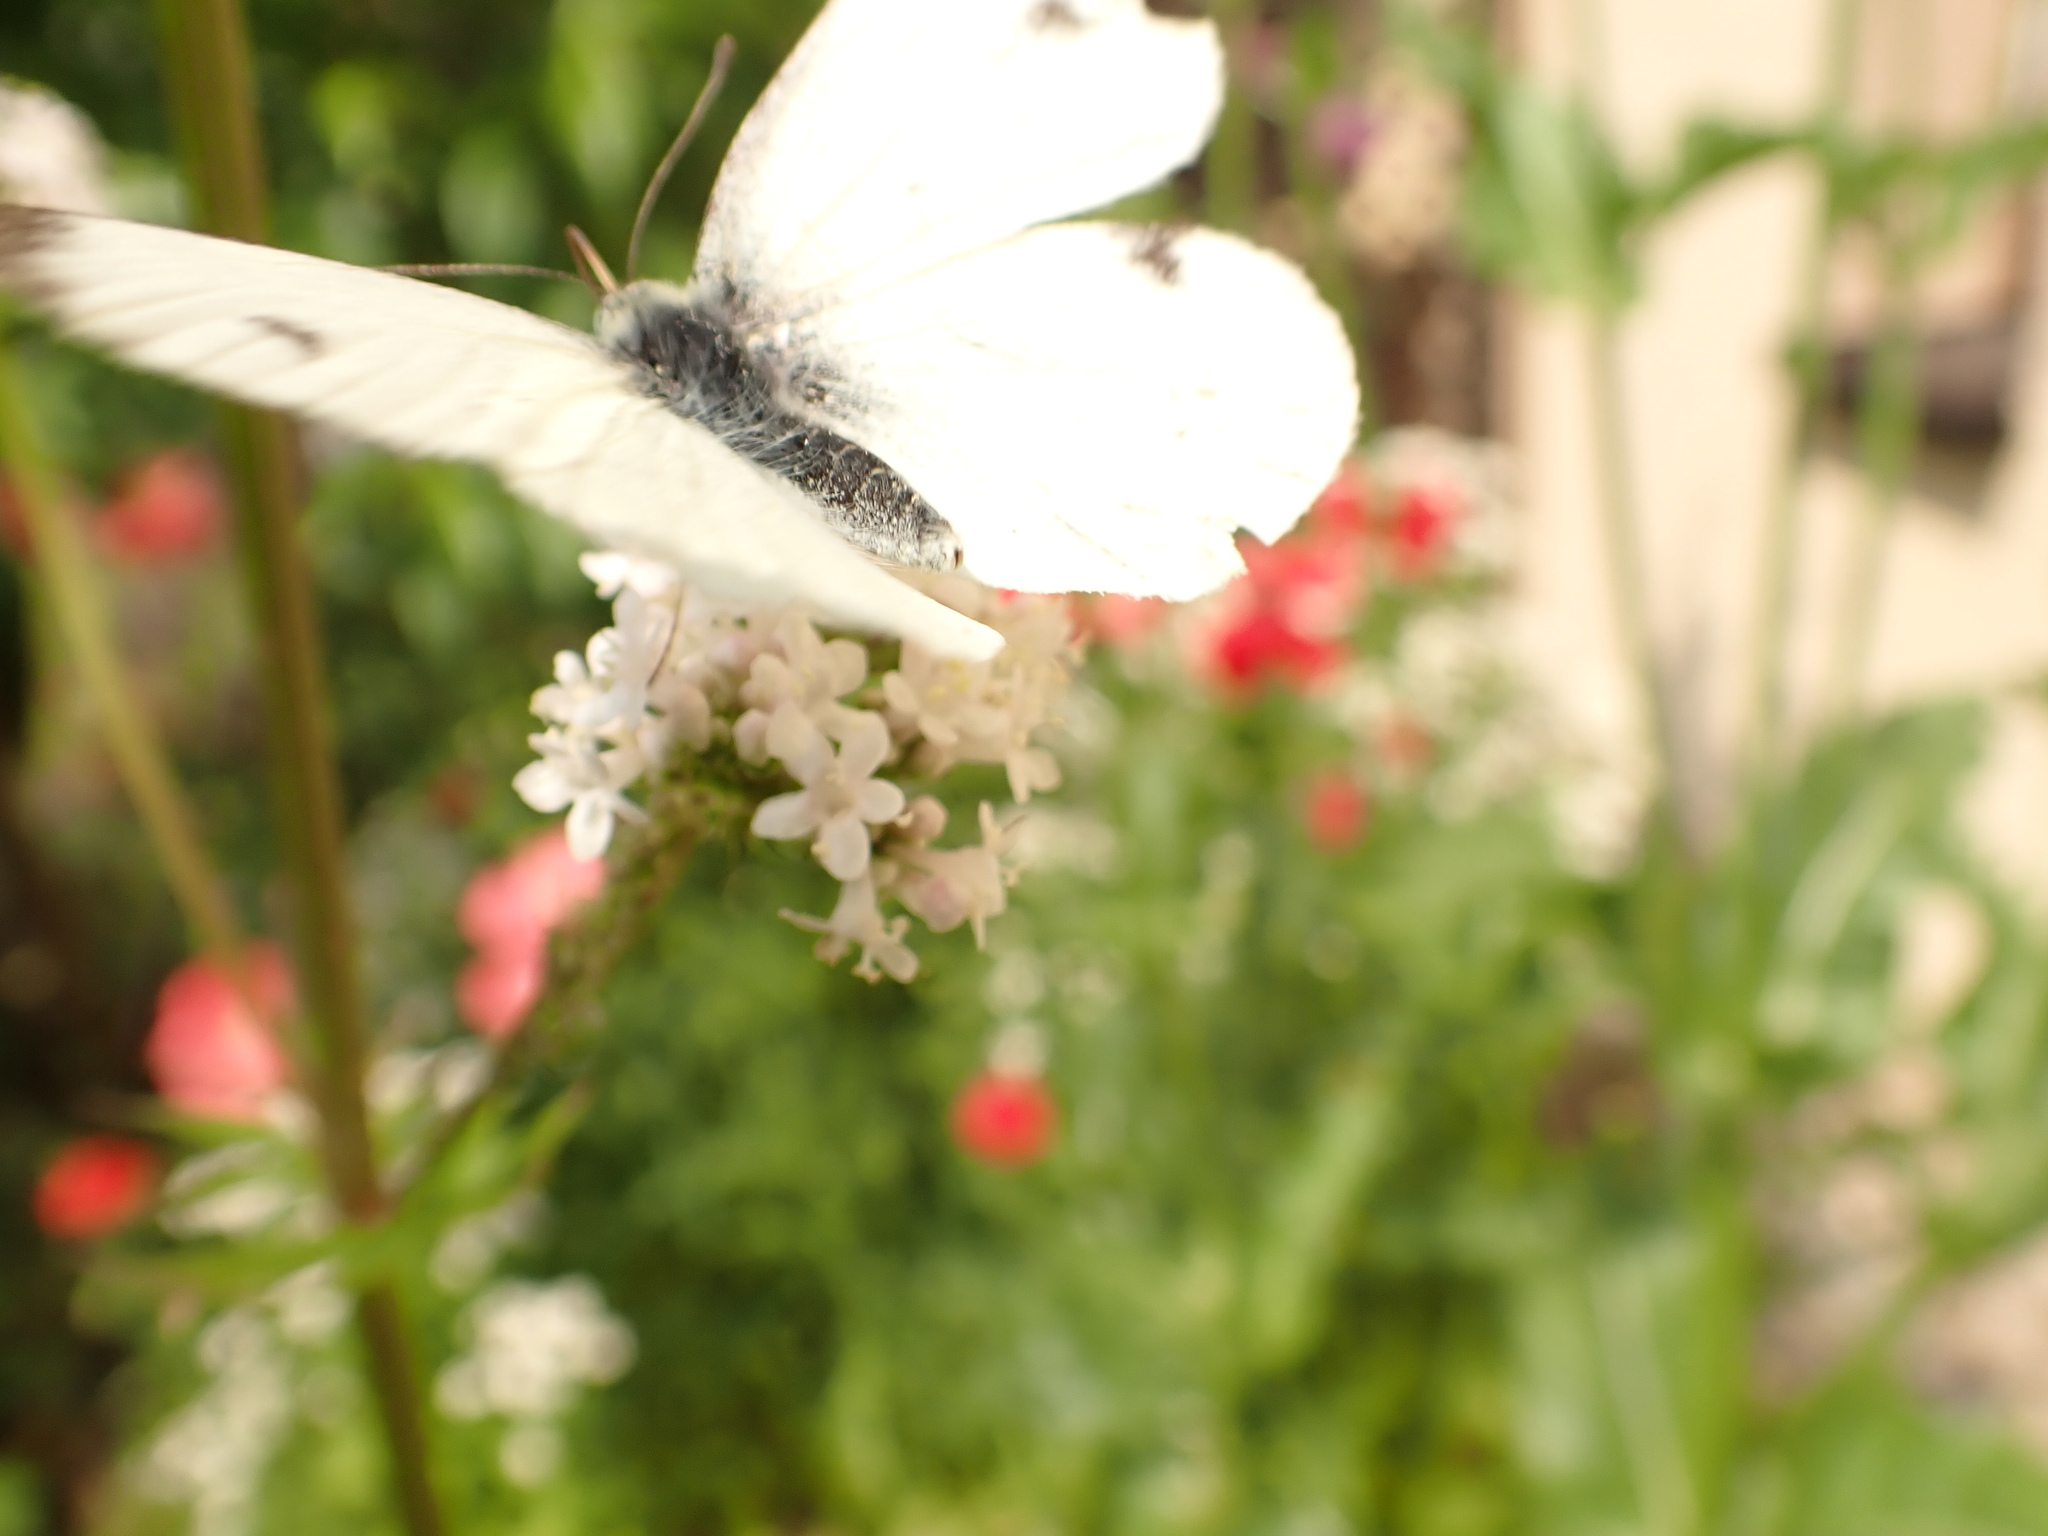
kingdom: Animalia
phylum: Arthropoda
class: Insecta
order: Lepidoptera
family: Pieridae
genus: Pieris
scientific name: Pieris rapae
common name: Small white
